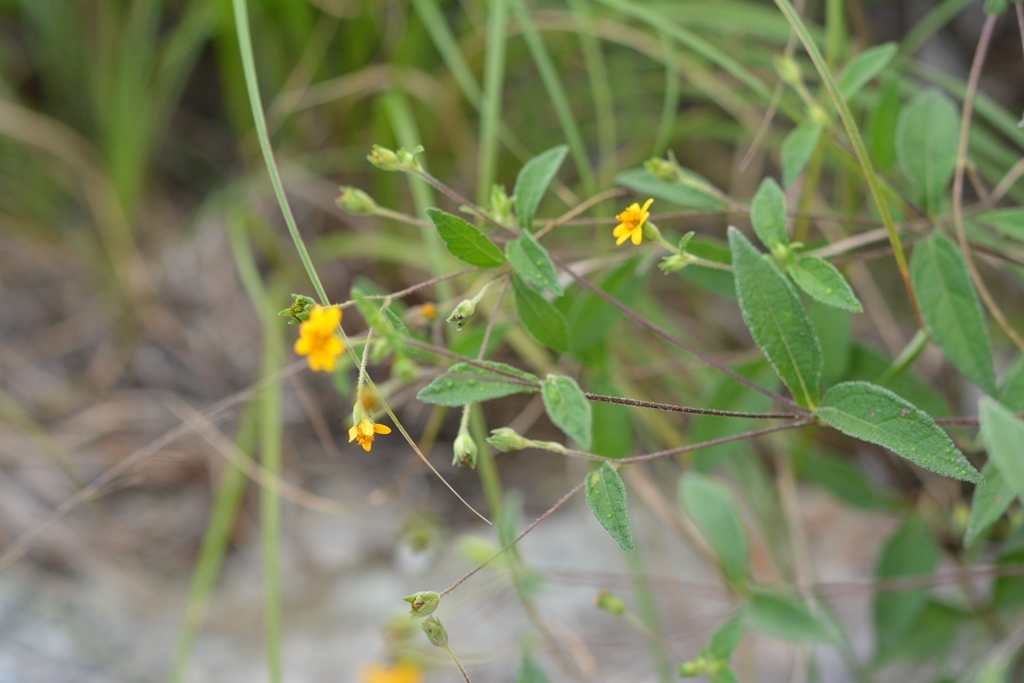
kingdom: Plantae
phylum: Tracheophyta
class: Magnoliopsida
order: Asterales
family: Asteraceae
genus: Perymenium
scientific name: Perymenium klattianum
